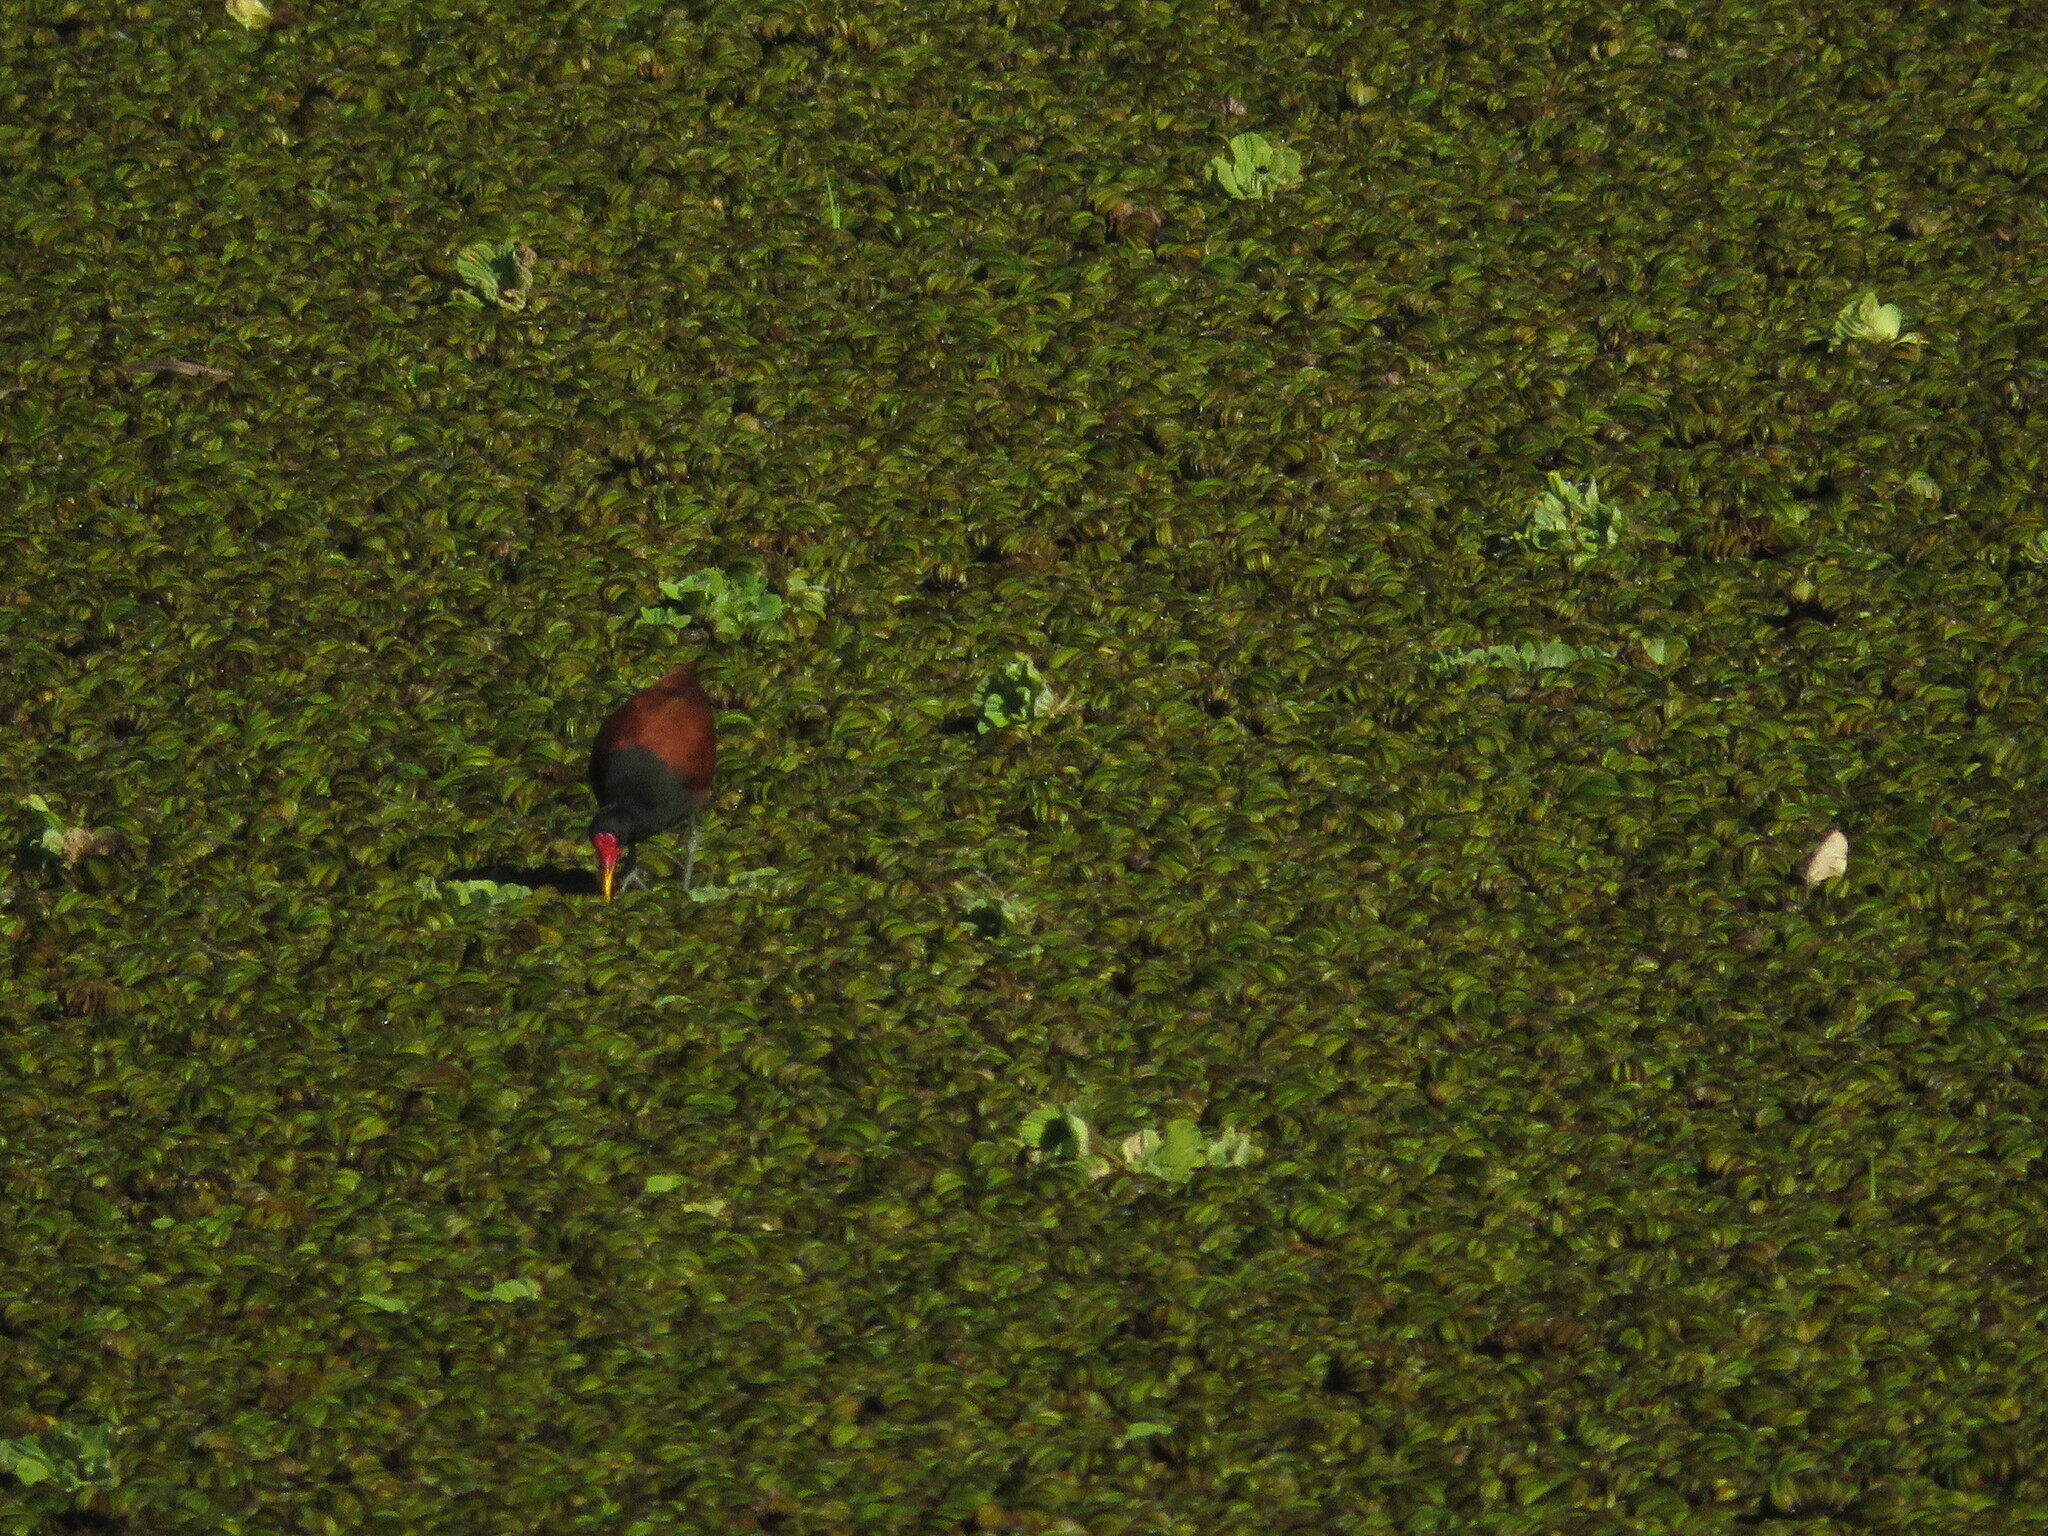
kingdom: Animalia
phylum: Chordata
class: Aves
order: Charadriiformes
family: Jacanidae
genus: Jacana
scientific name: Jacana jacana
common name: Wattled jacana
